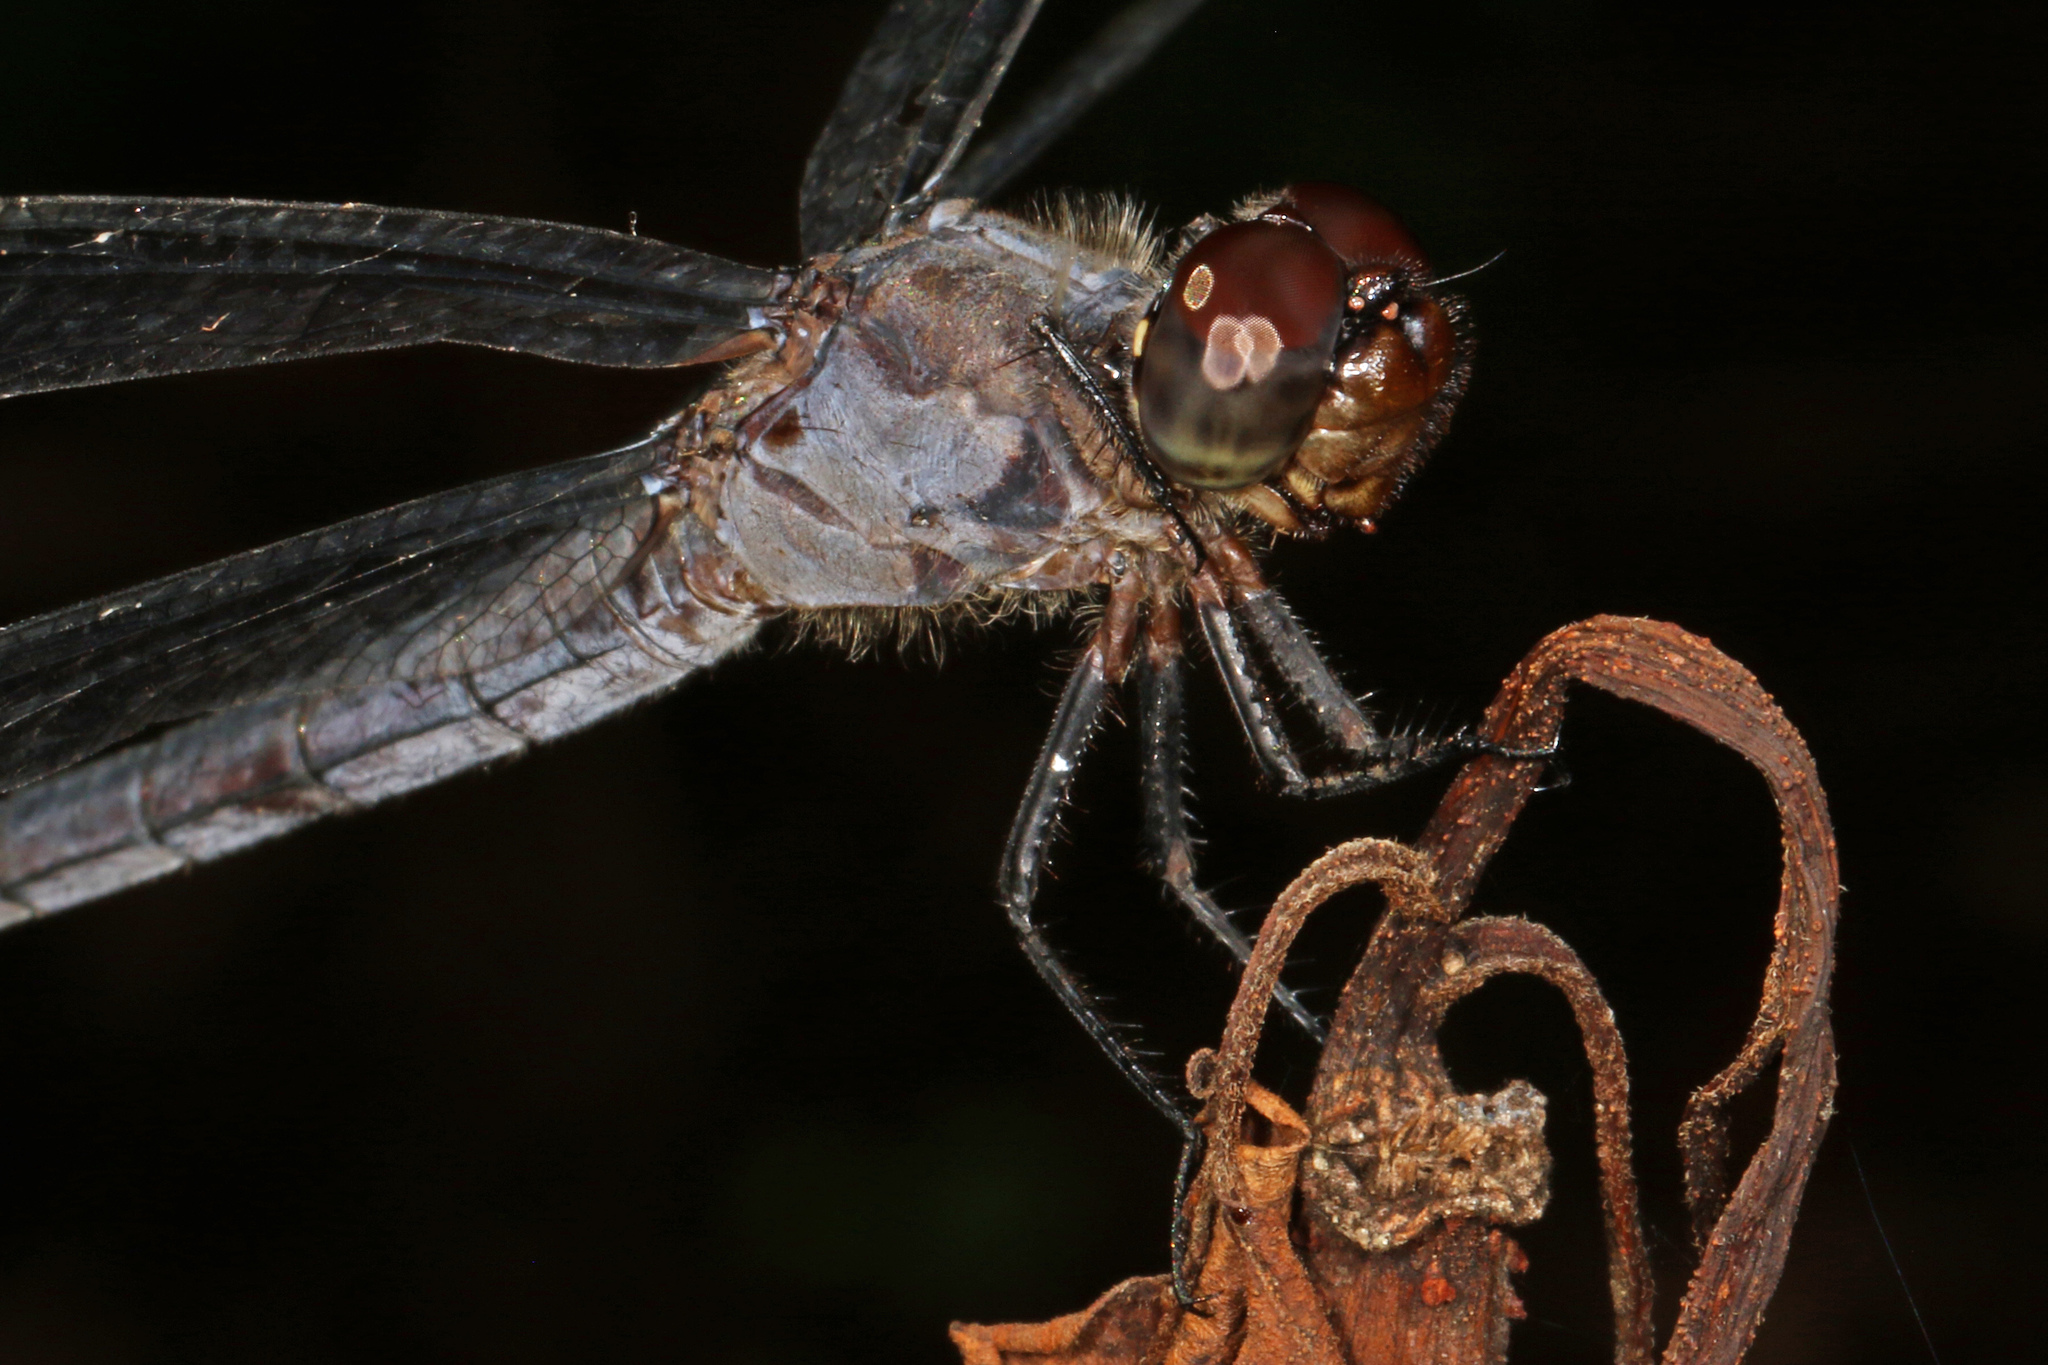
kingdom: Animalia
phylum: Arthropoda
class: Insecta
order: Odonata
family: Libellulidae
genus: Libellula
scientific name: Libellula incesta
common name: Slaty skimmer
